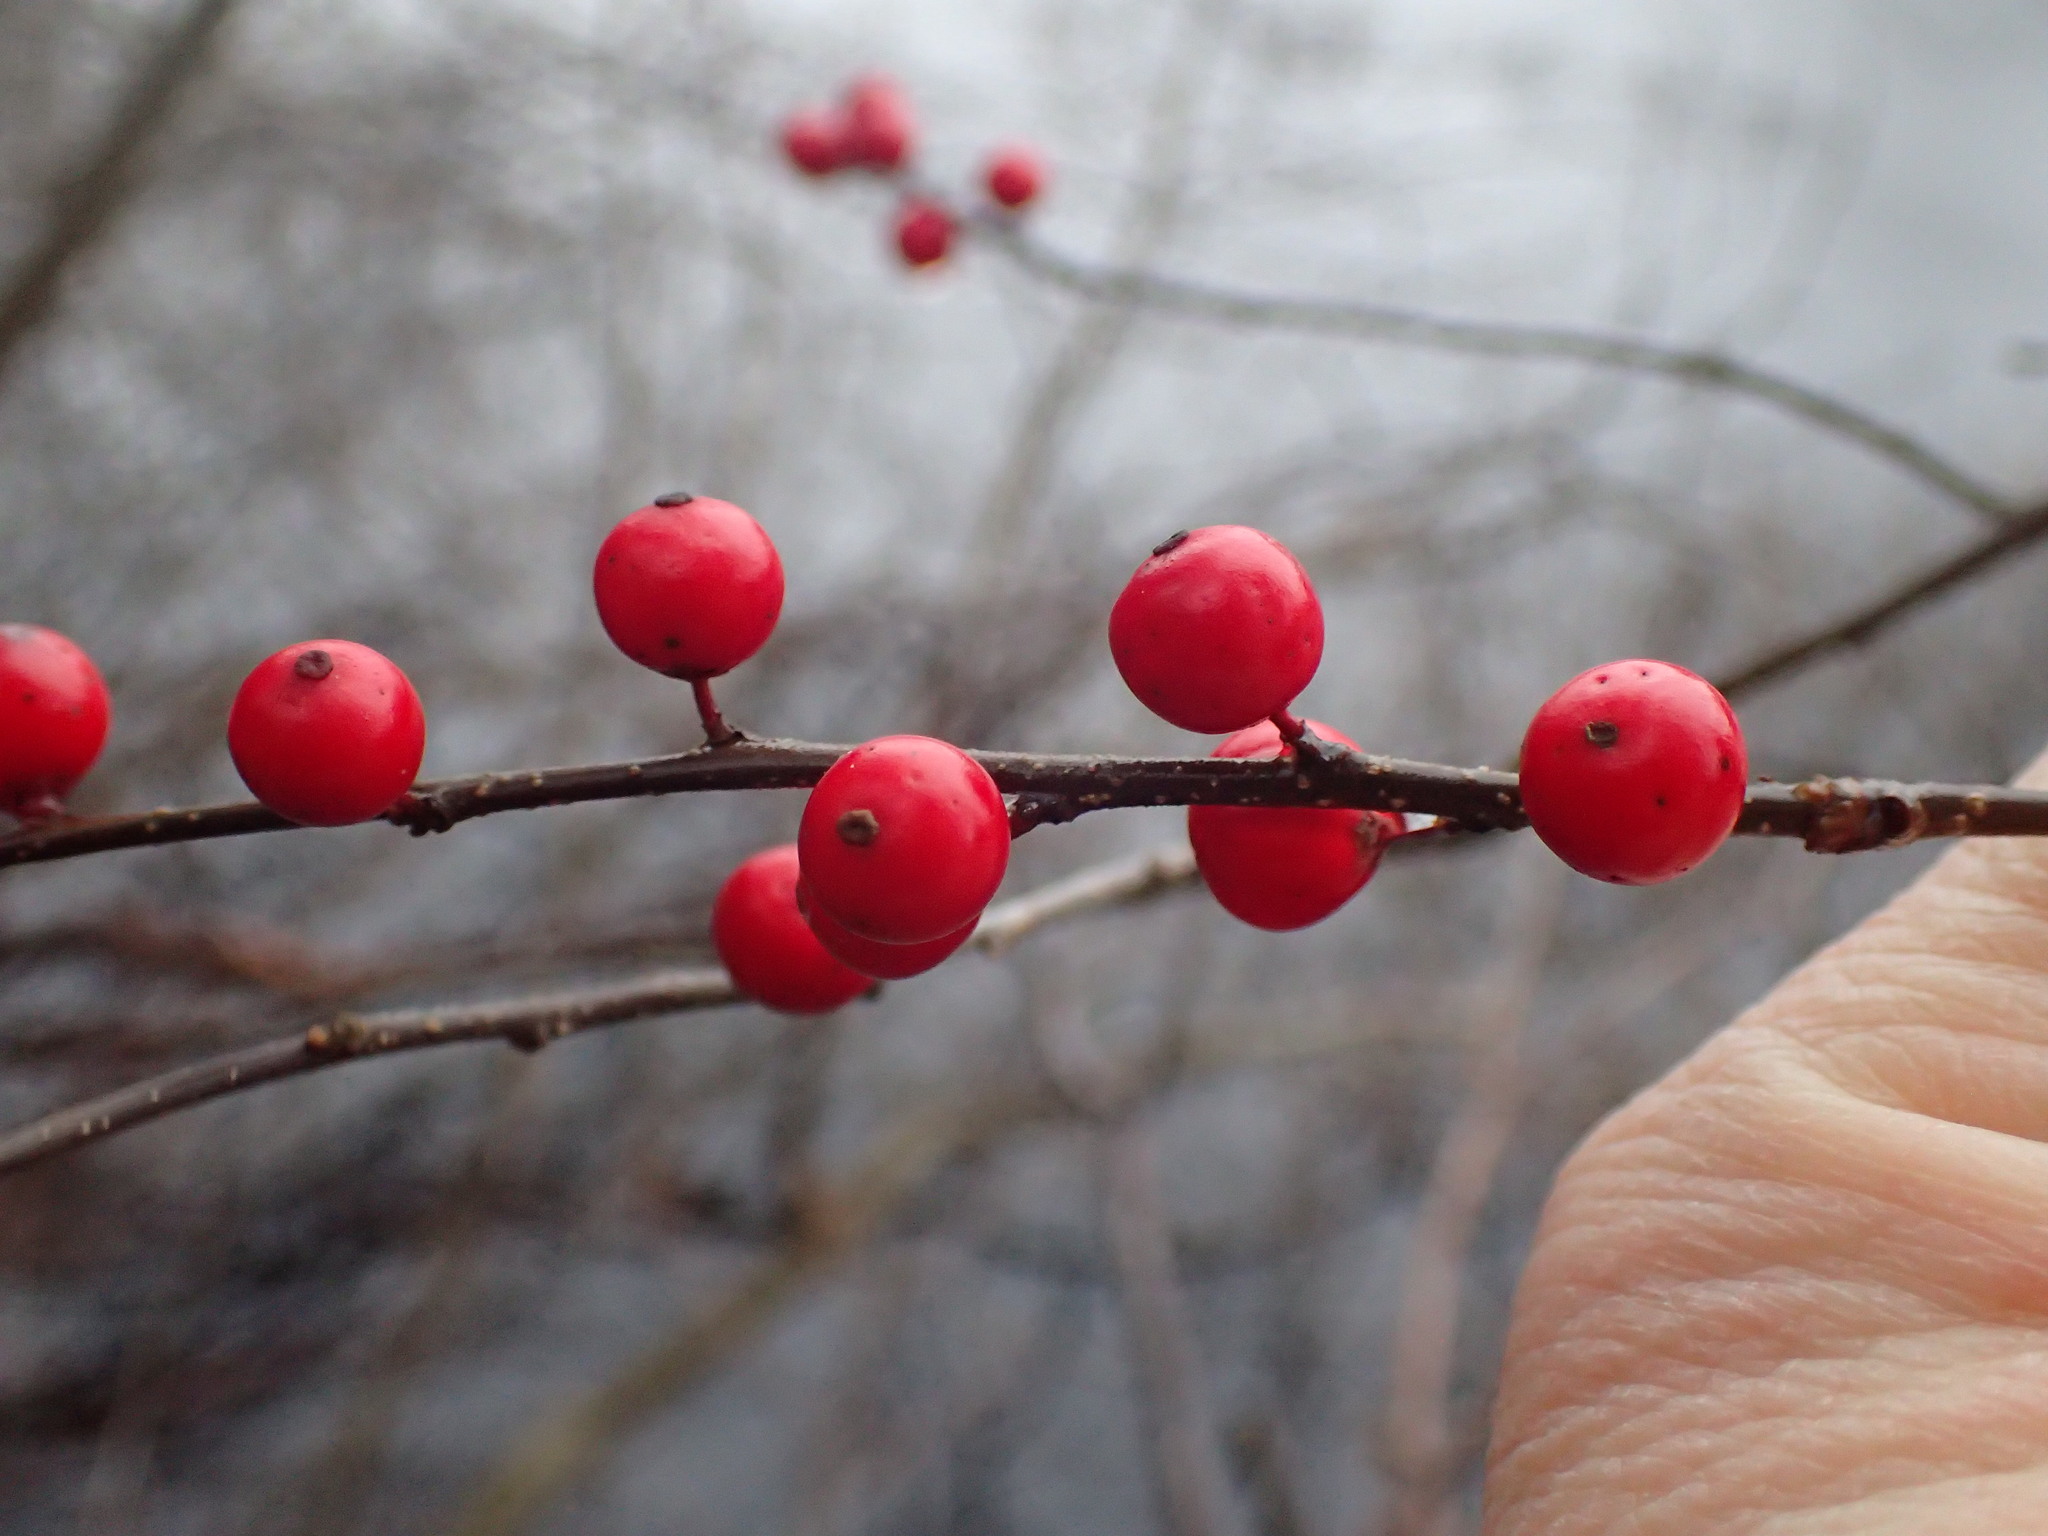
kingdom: Plantae
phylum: Tracheophyta
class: Magnoliopsida
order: Aquifoliales
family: Aquifoliaceae
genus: Ilex
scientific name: Ilex verticillata
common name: Virginia winterberry
